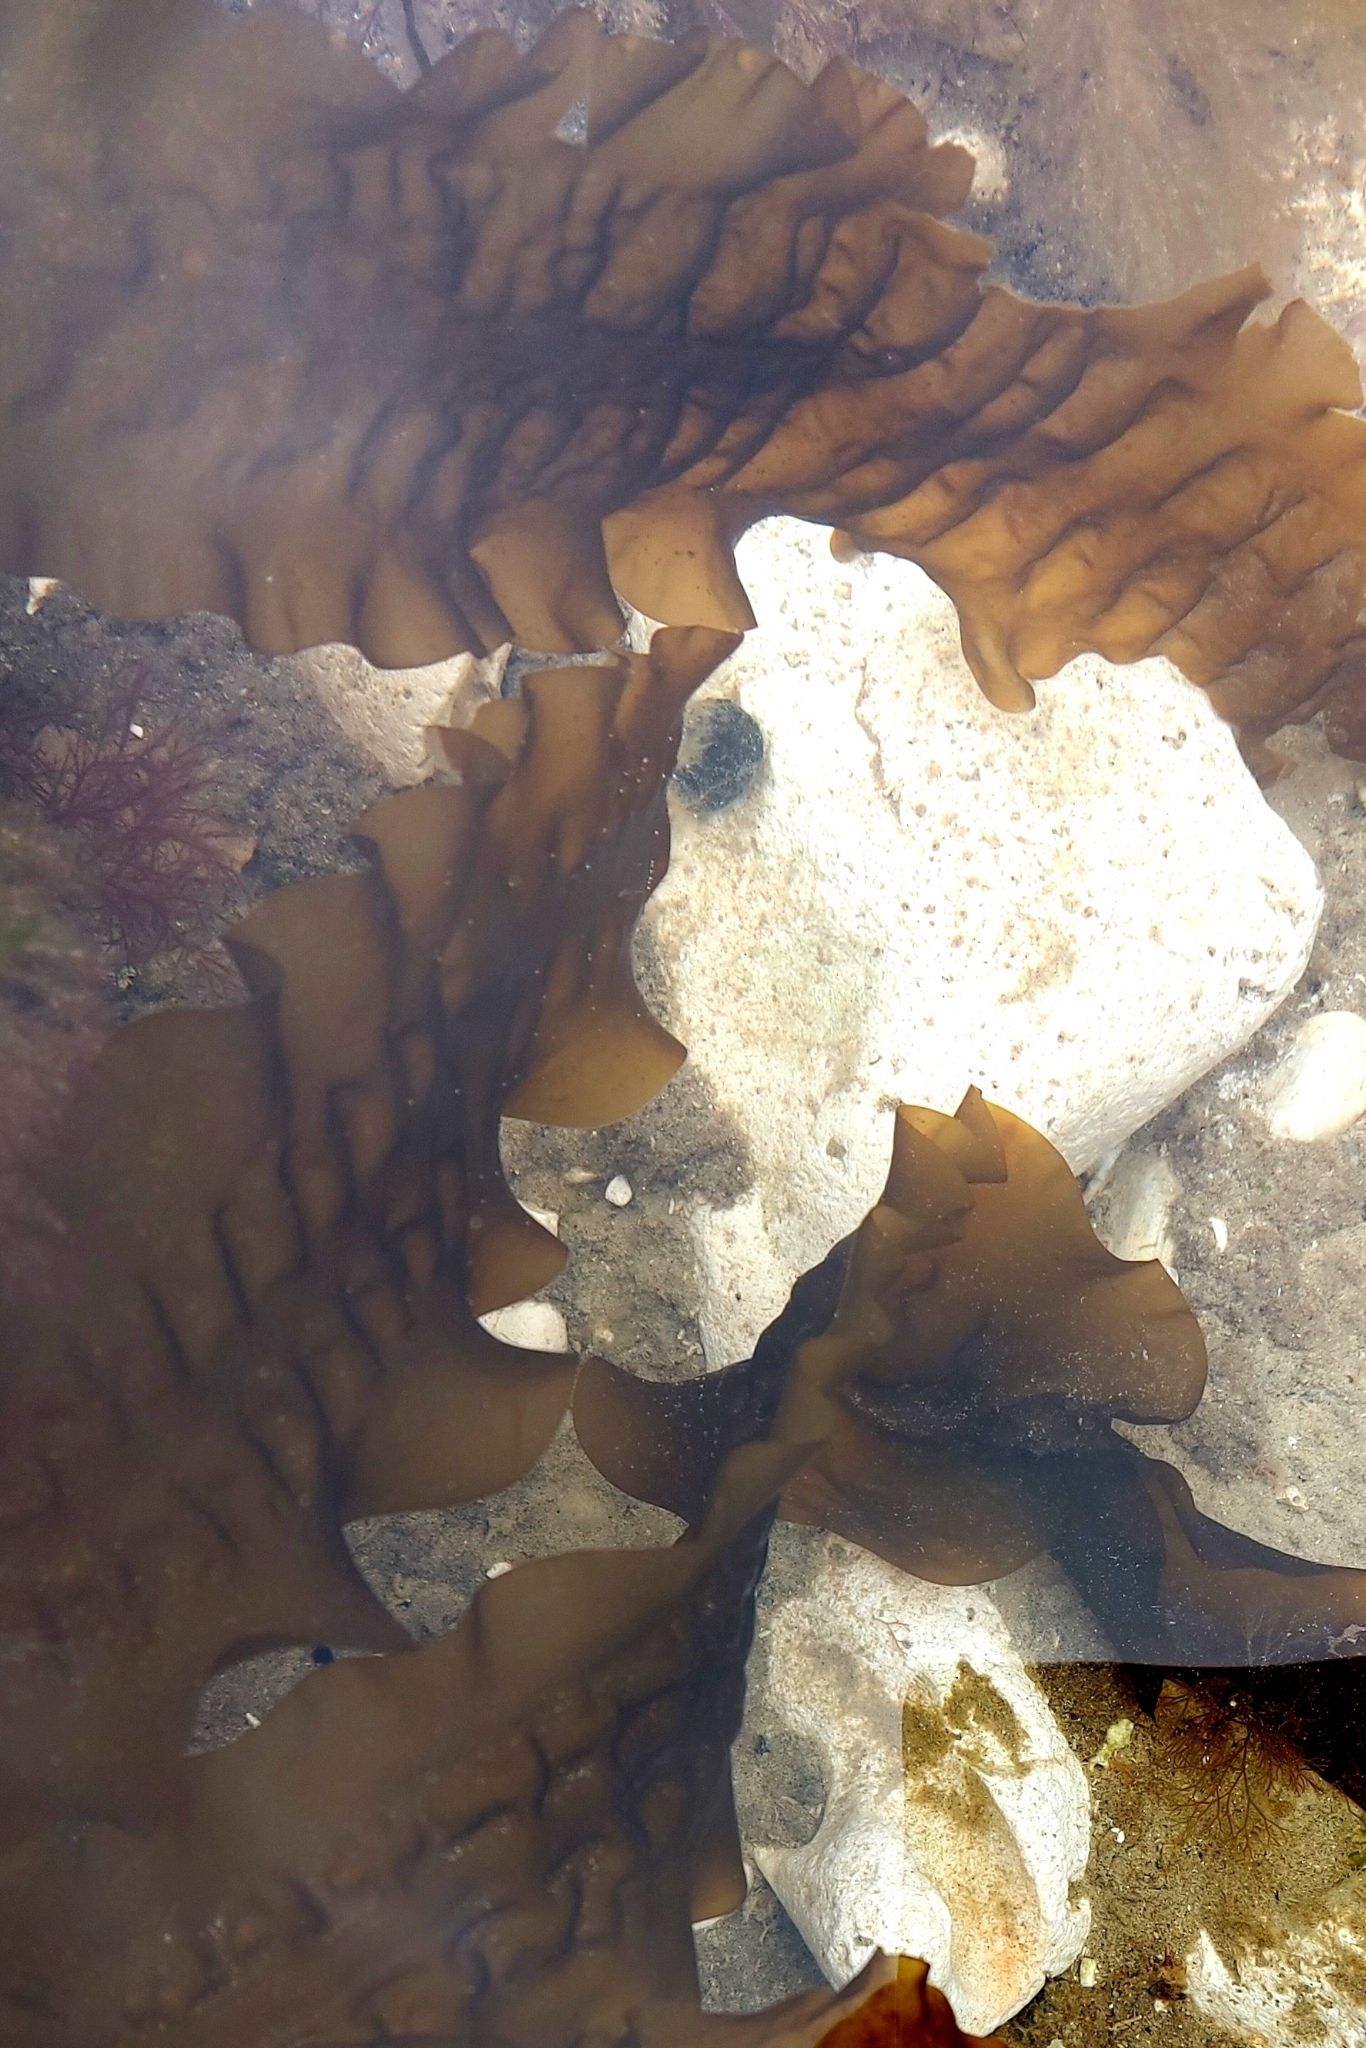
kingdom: Chromista
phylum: Ochrophyta
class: Phaeophyceae
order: Laminariales
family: Laminariaceae
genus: Saccharina
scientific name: Saccharina latissima
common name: Poor man's weather glass
